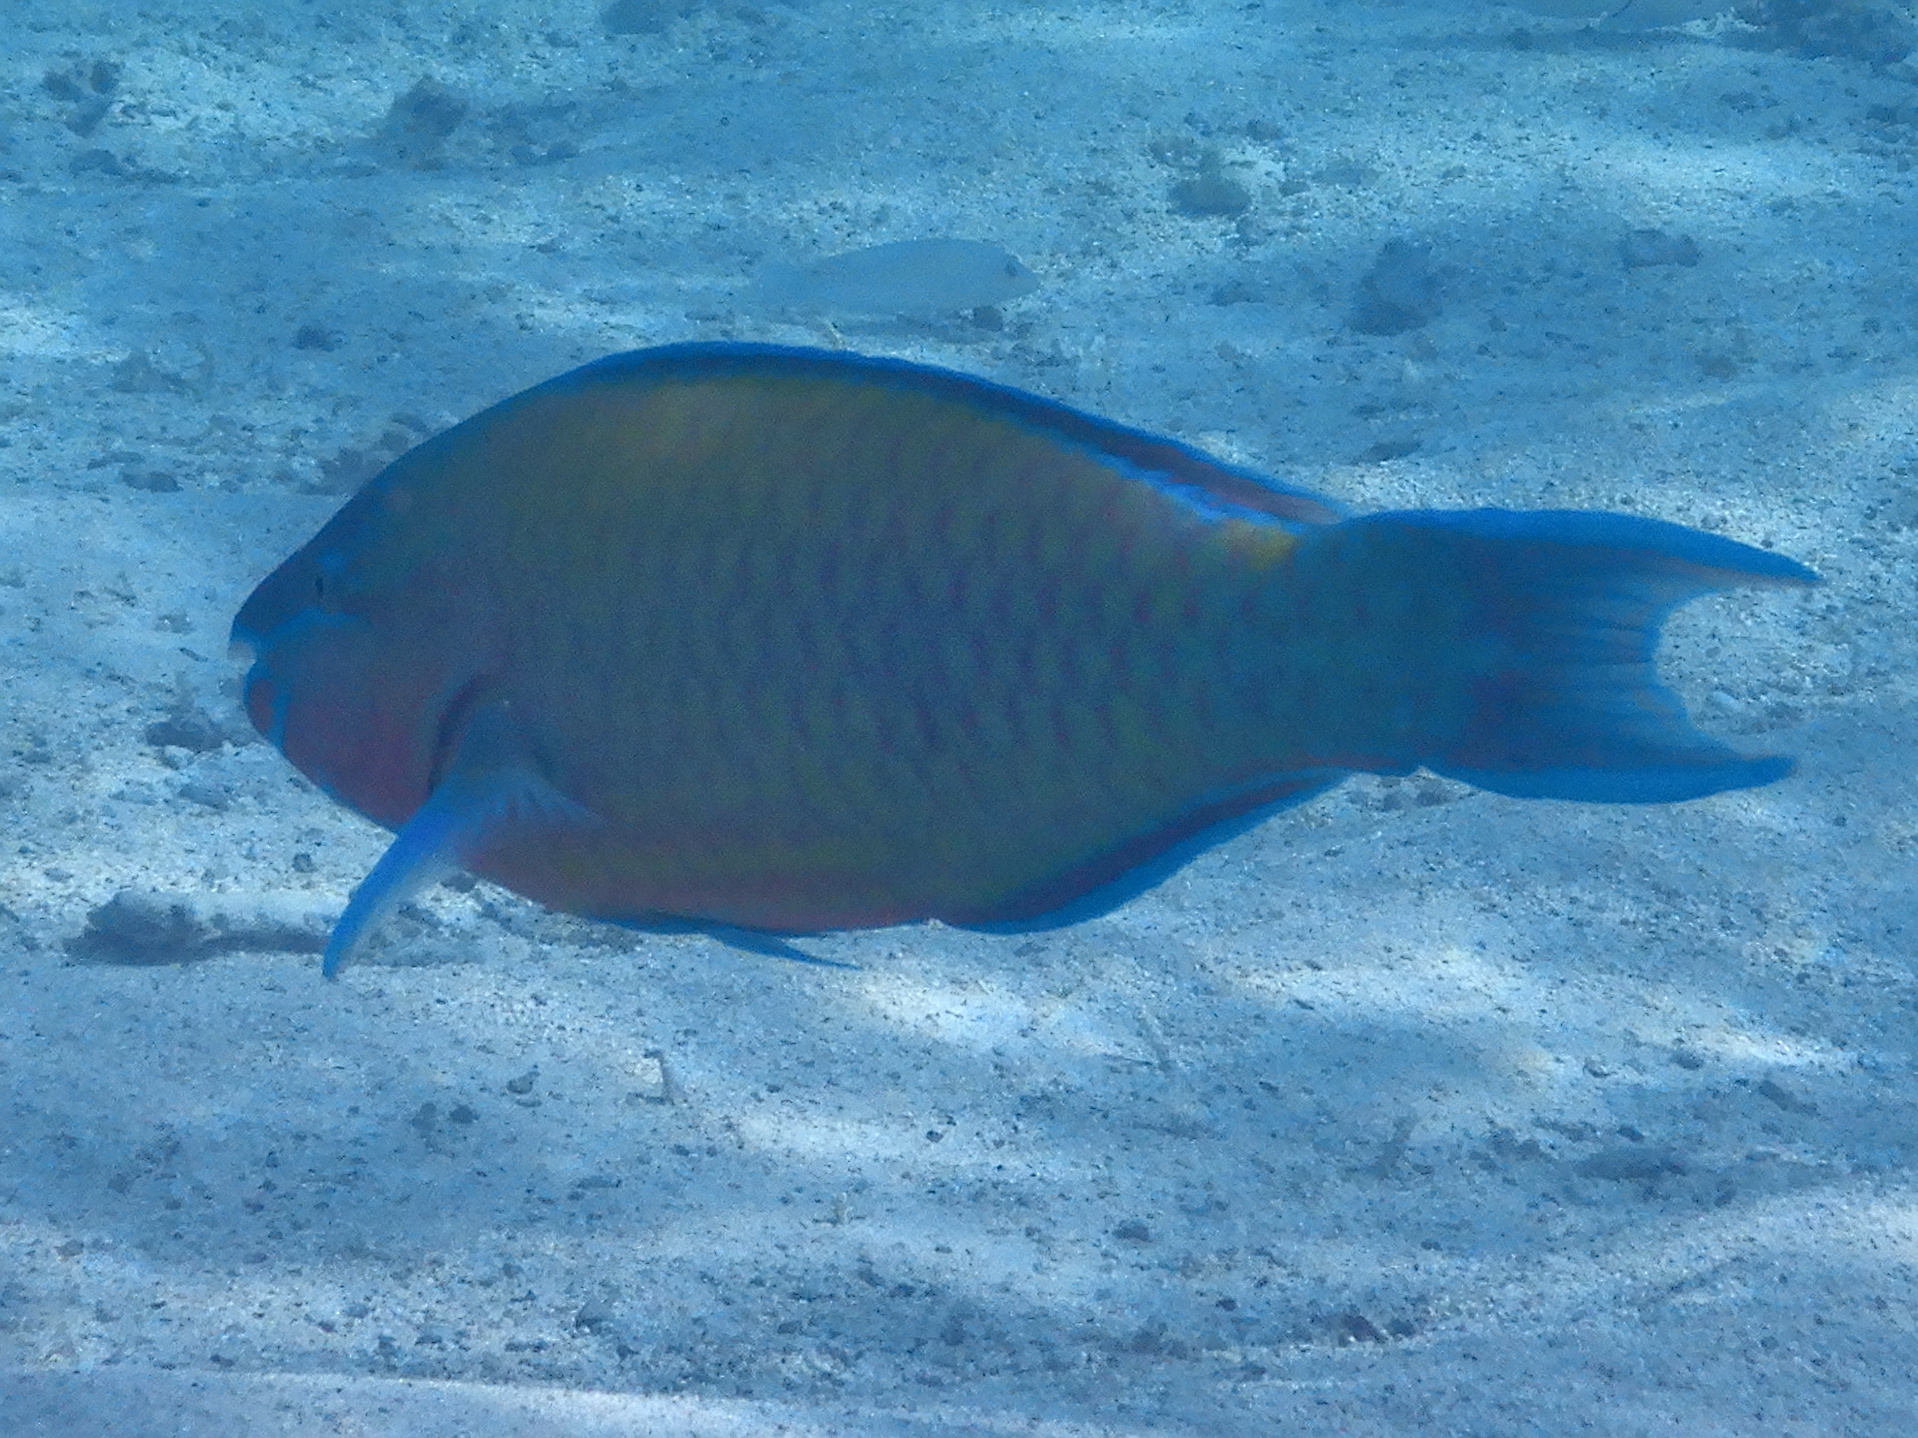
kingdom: Animalia
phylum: Chordata
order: Perciformes
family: Scaridae
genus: Scarus
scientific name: Scarus psittacus
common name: Palenose parrotfish
